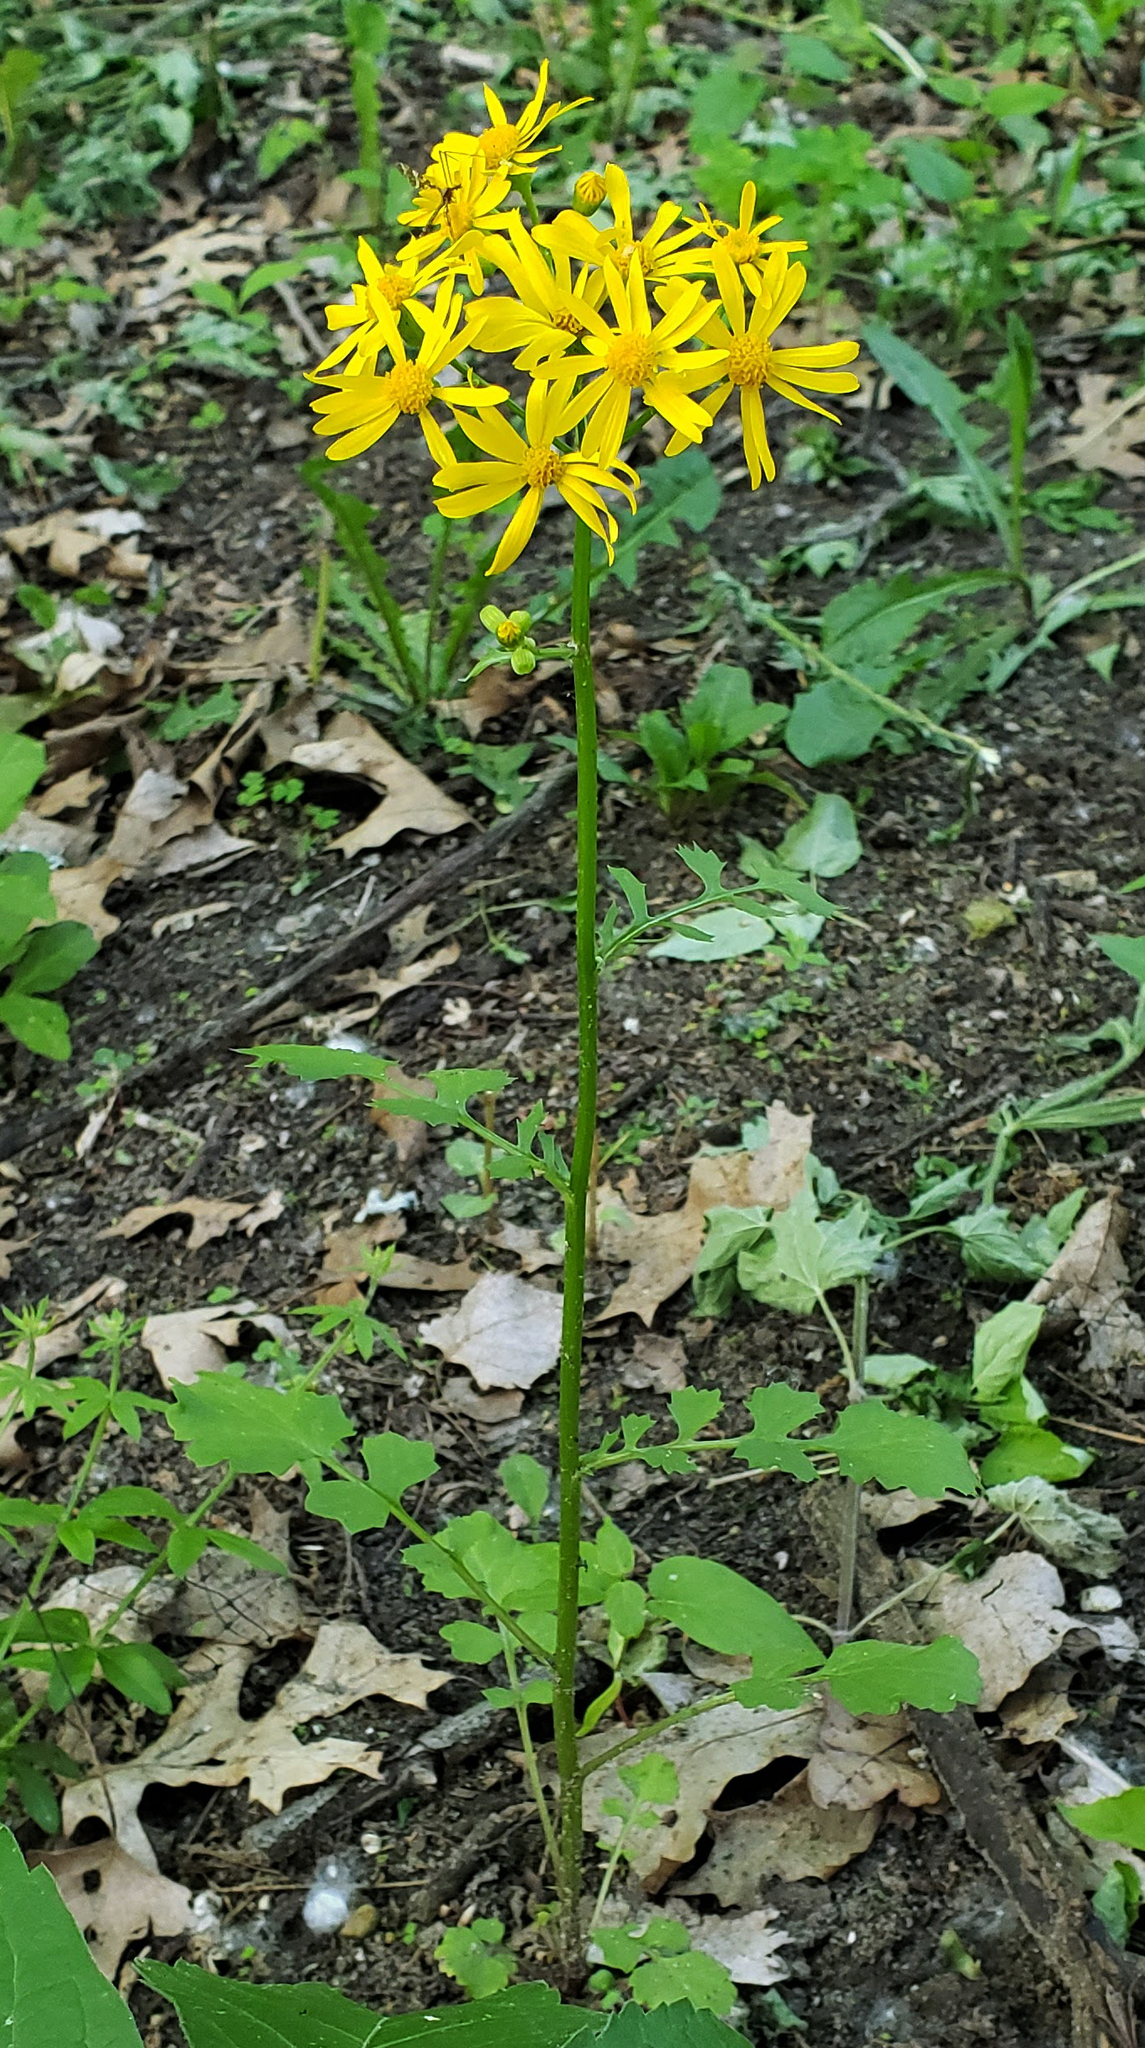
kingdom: Plantae
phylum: Tracheophyta
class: Magnoliopsida
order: Asterales
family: Asteraceae
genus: Packera
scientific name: Packera glabella
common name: Butterweed
